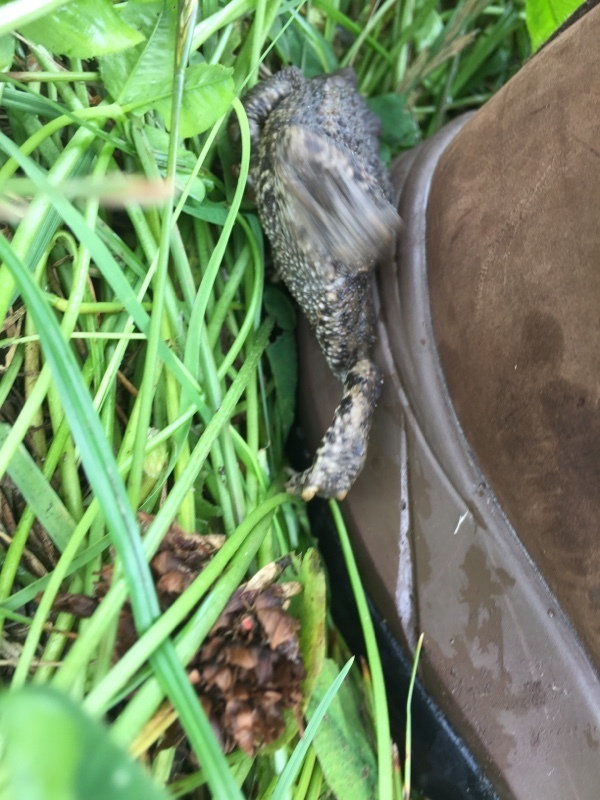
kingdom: Animalia
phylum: Chordata
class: Amphibia
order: Anura
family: Bufonidae
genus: Bufo
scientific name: Bufo bufo
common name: Common toad
